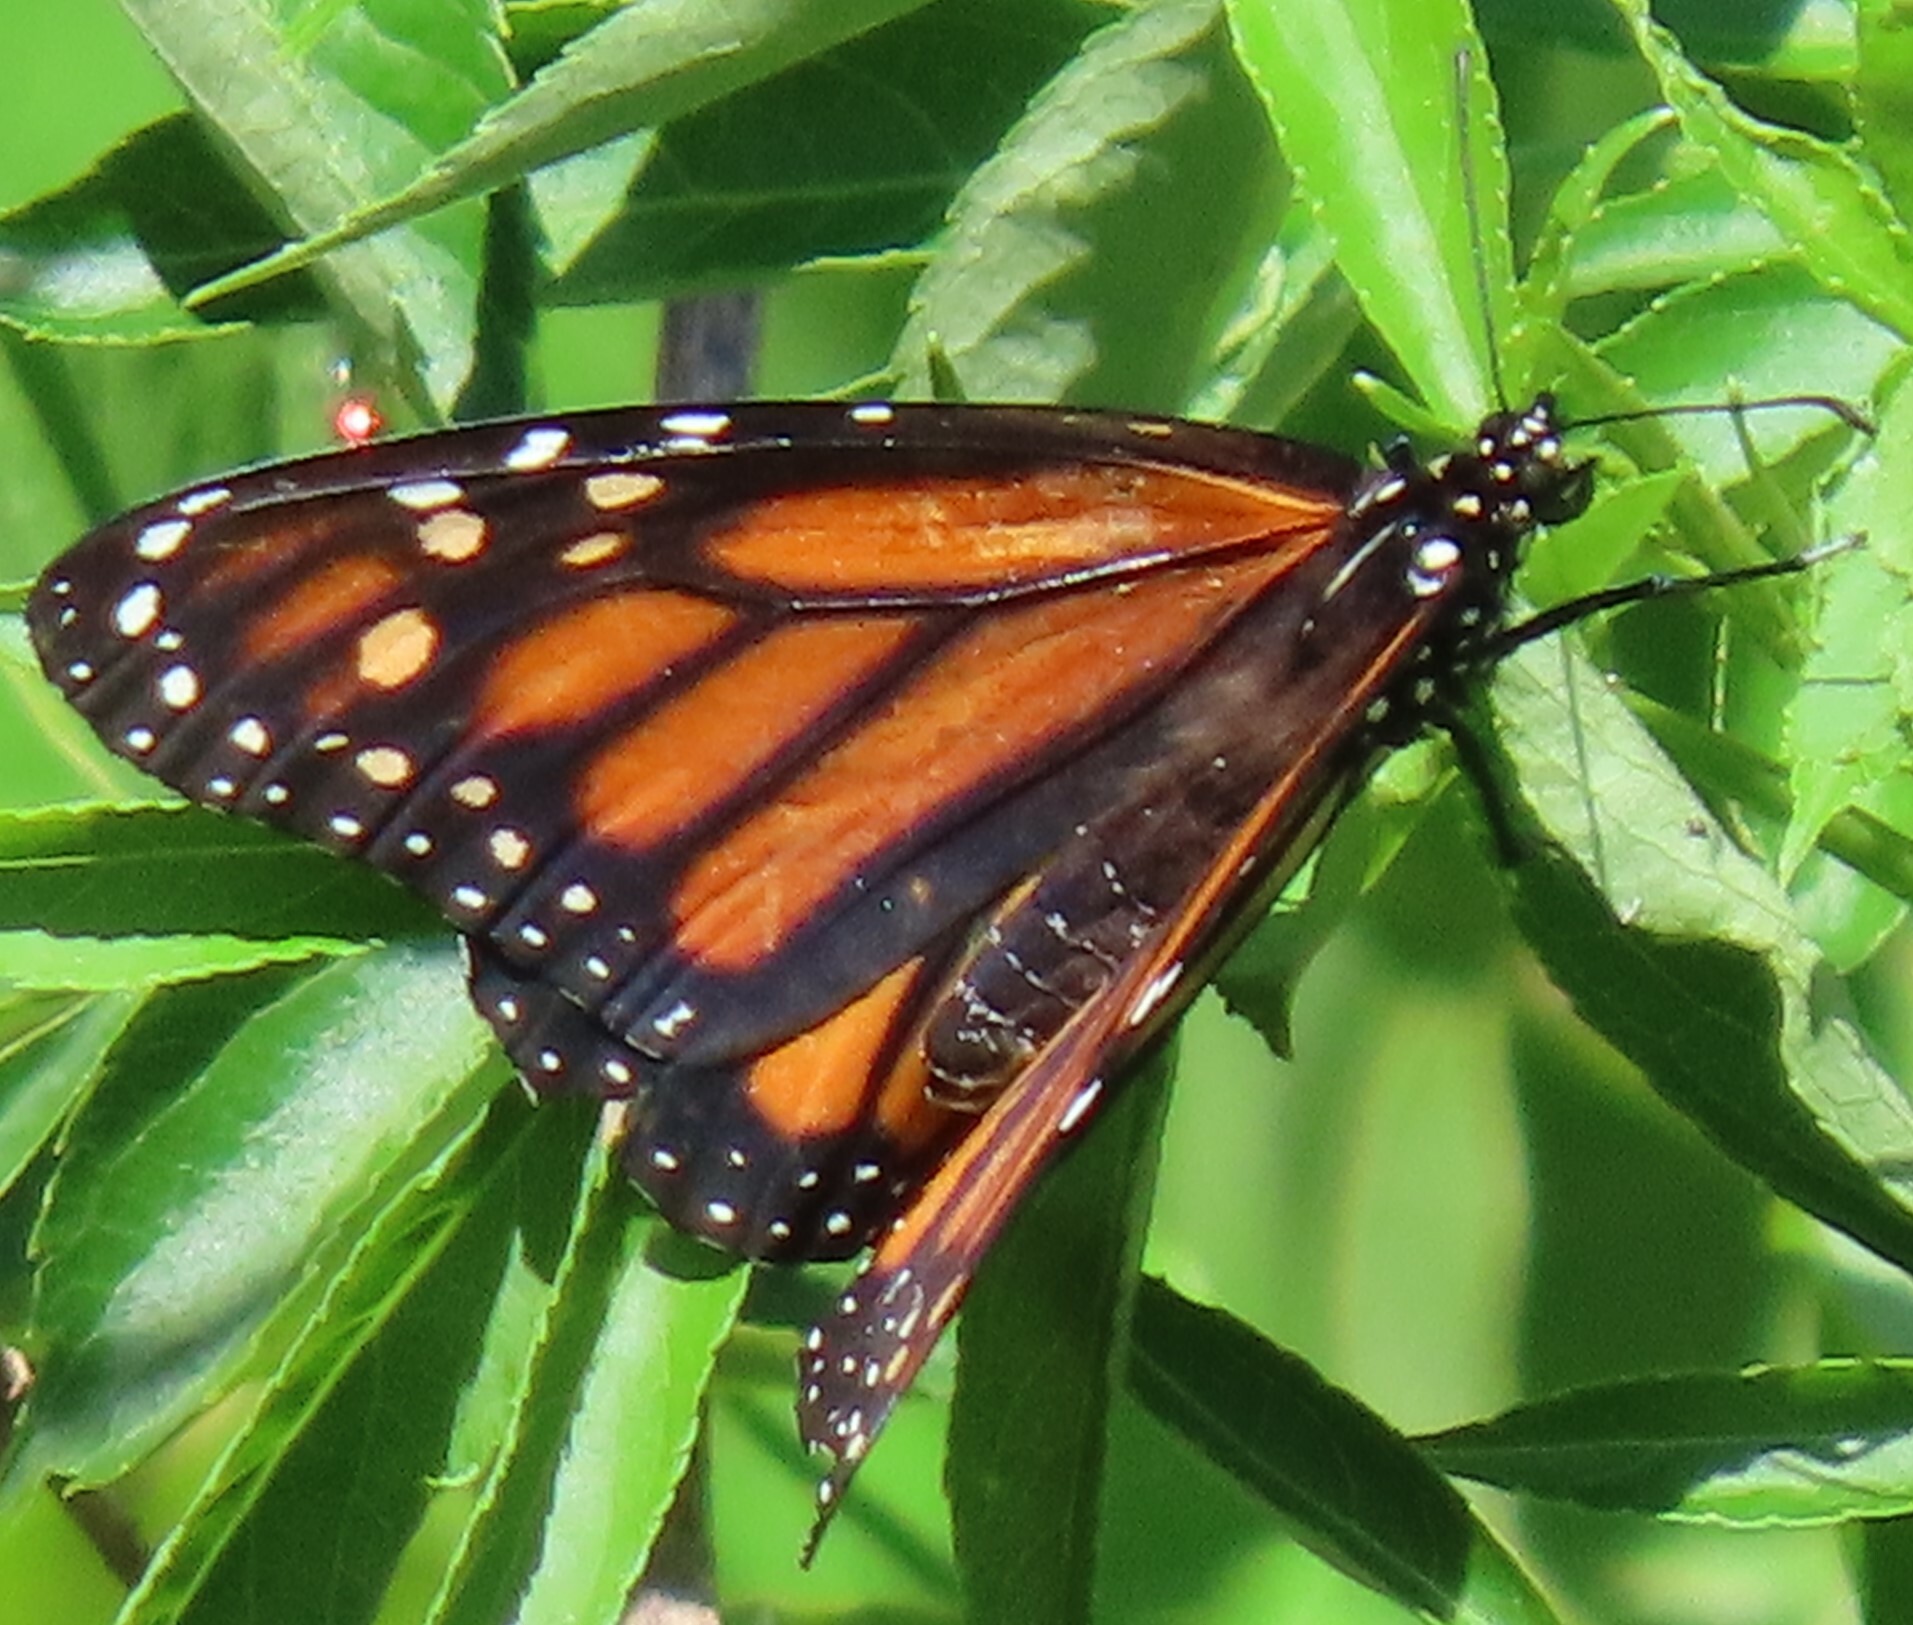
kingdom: Animalia
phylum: Arthropoda
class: Insecta
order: Lepidoptera
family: Nymphalidae
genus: Danaus
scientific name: Danaus plexippus
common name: Monarch
